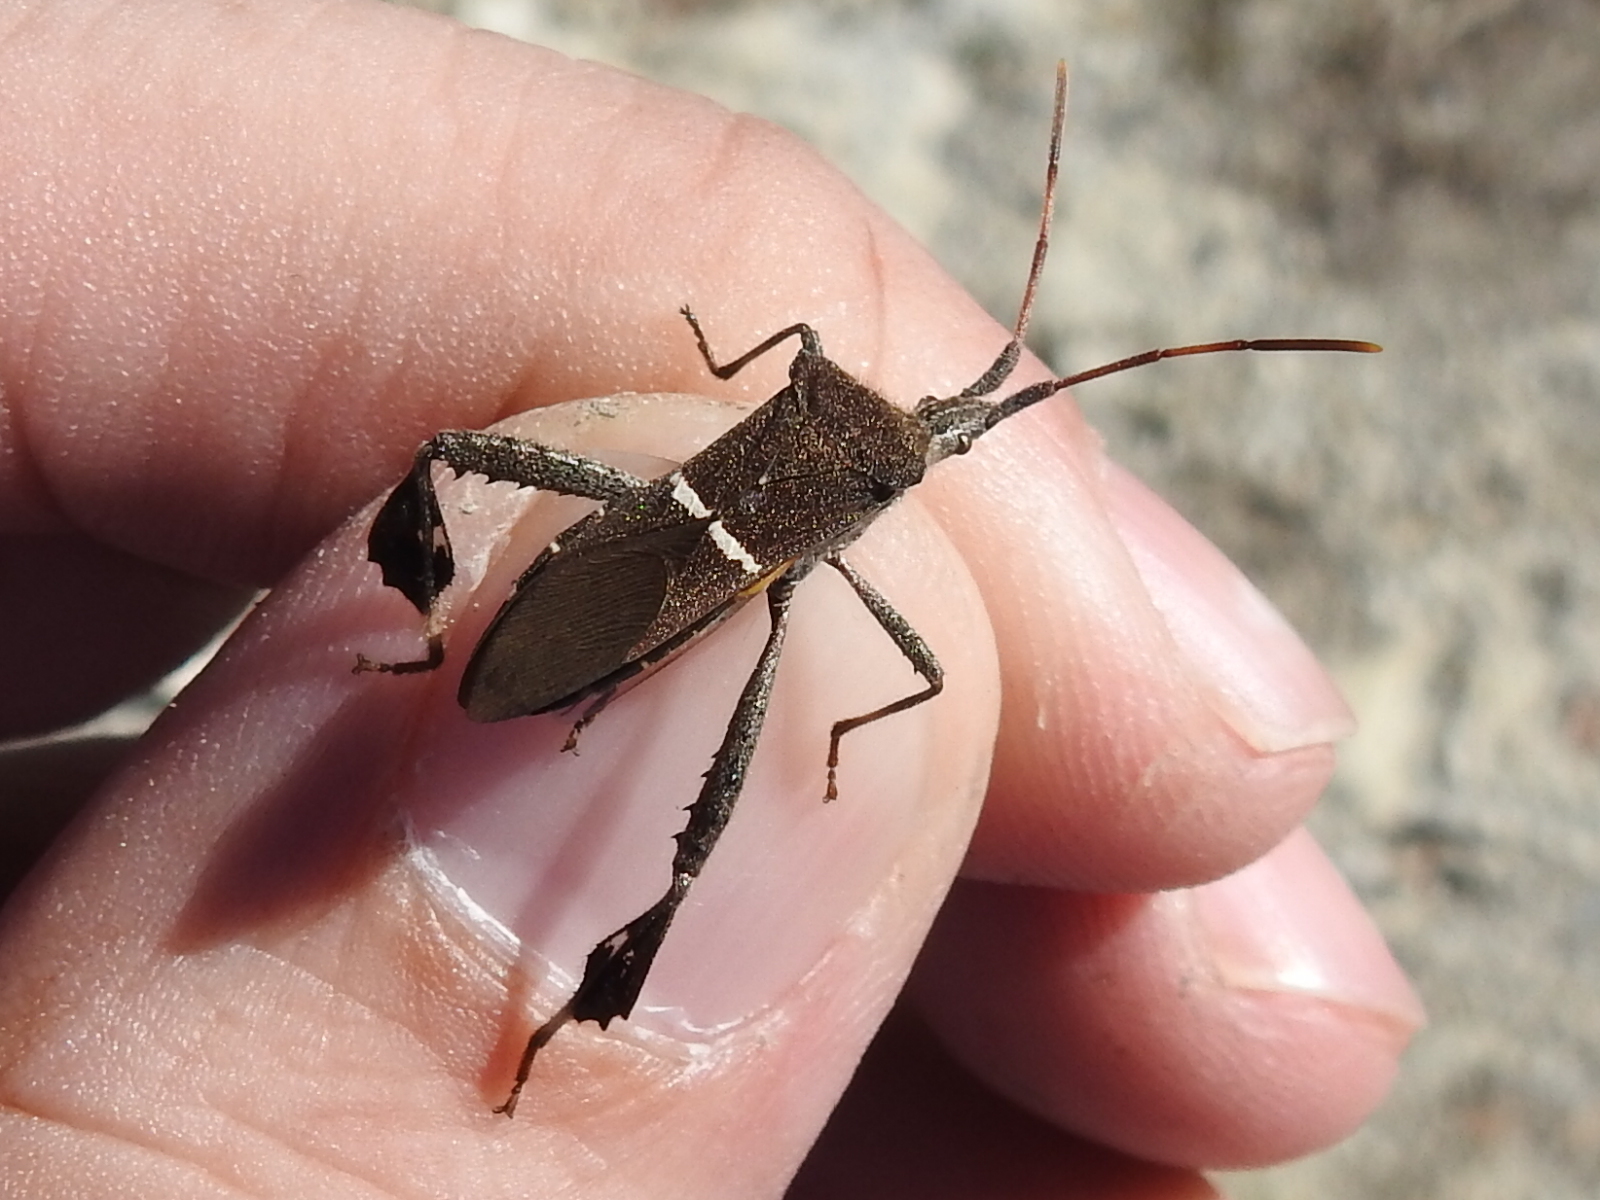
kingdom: Animalia
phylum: Arthropoda
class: Insecta
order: Hemiptera
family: Coreidae
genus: Leptoglossus
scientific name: Leptoglossus phyllopus
